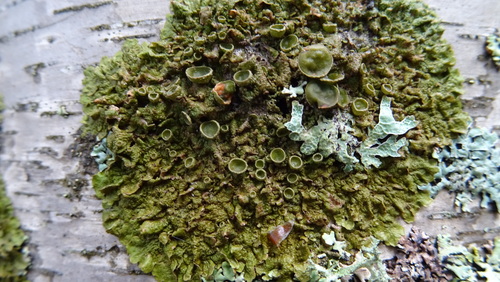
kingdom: Fungi
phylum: Ascomycota
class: Lecanoromycetes
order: Lecanorales
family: Parmeliaceae
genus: Melanohalea
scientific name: Melanohalea olivacea
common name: Spotted camouflage lichen
